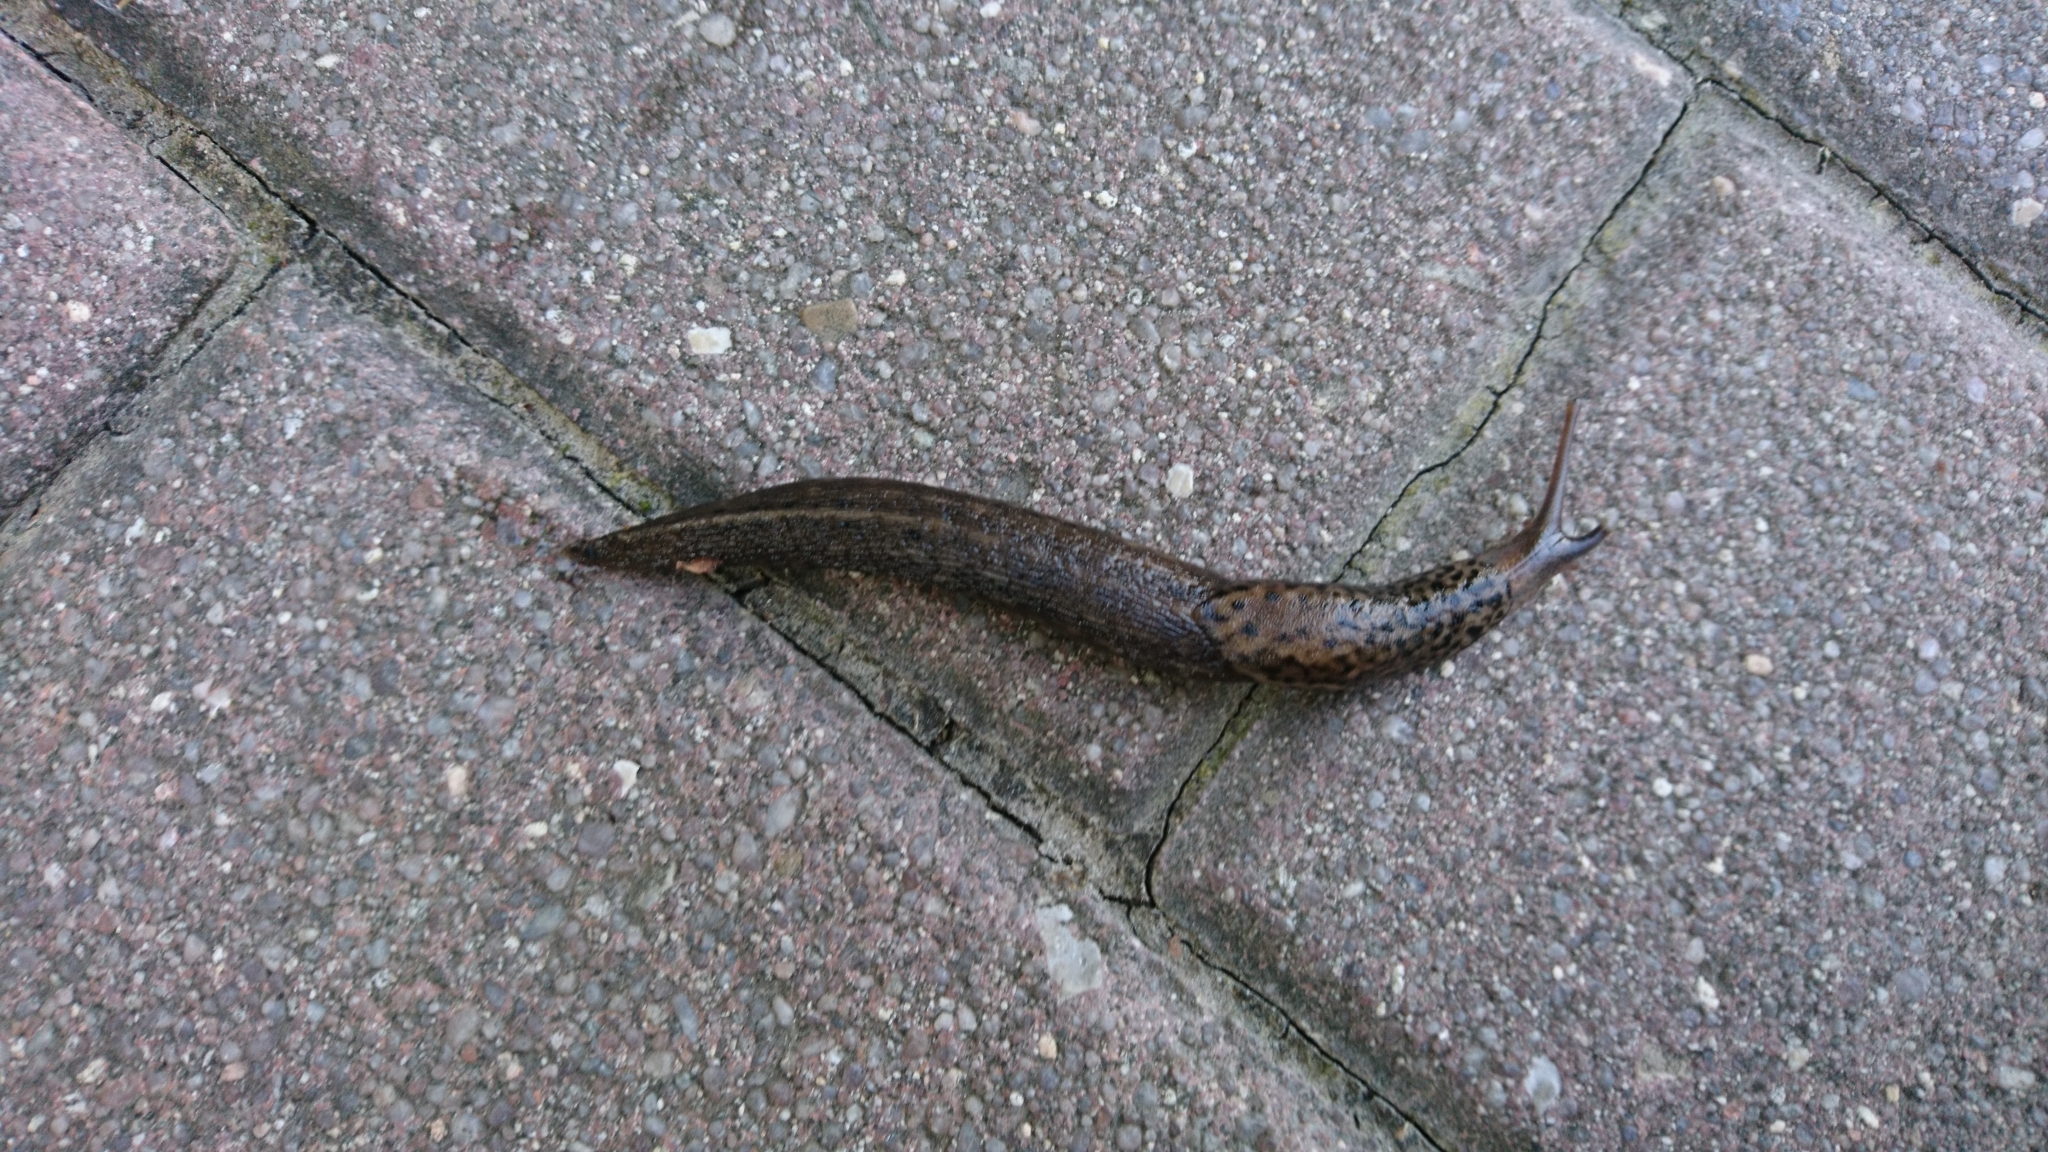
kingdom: Animalia
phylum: Mollusca
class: Gastropoda
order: Stylommatophora
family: Limacidae
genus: Limax
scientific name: Limax maximus
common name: Great grey slug
